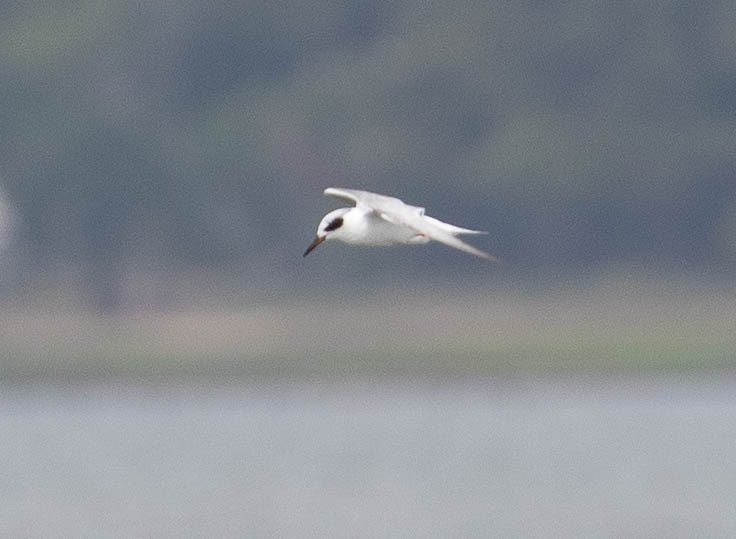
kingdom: Animalia
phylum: Chordata
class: Aves
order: Charadriiformes
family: Laridae
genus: Sterna
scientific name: Sterna forsteri
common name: Forster's tern
